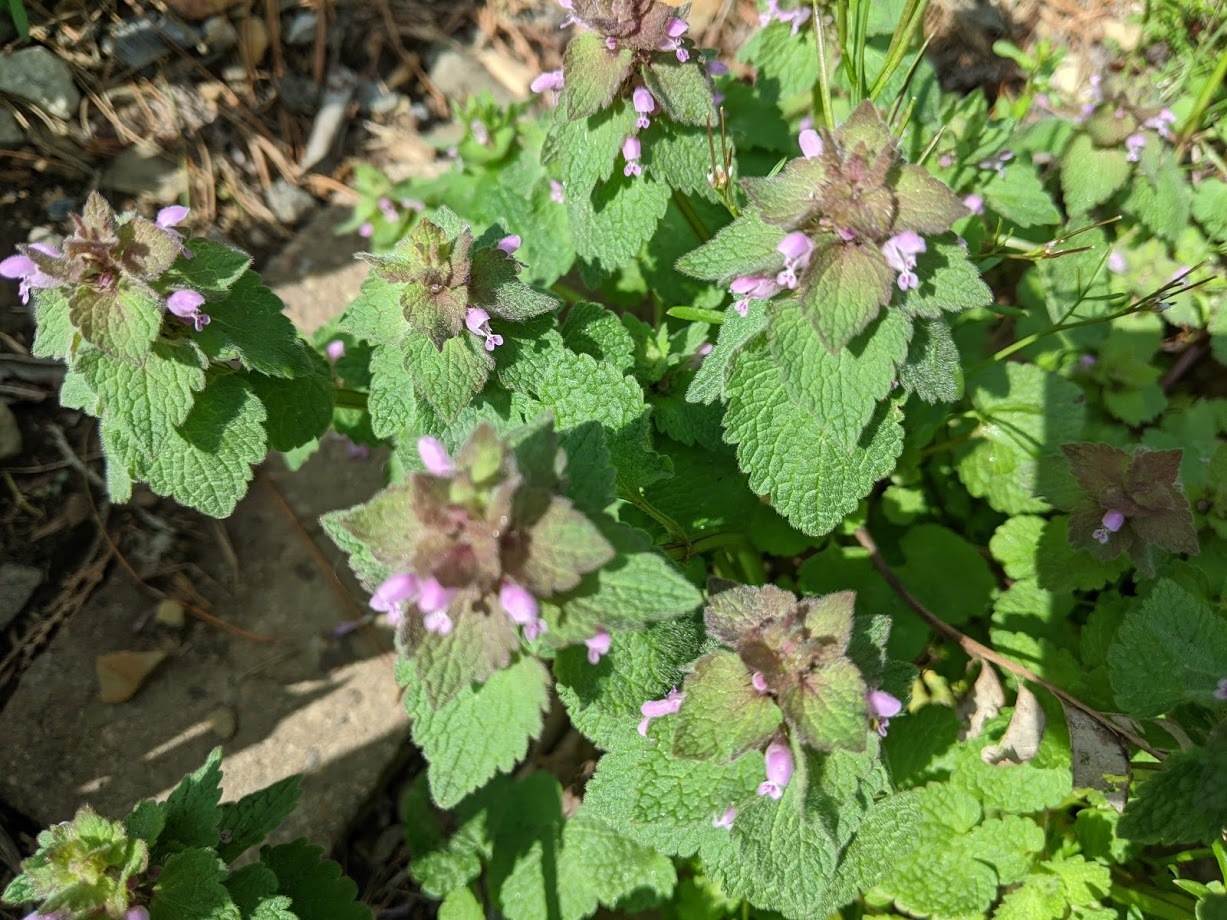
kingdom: Plantae
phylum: Tracheophyta
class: Magnoliopsida
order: Lamiales
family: Lamiaceae
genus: Lamium
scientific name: Lamium purpureum
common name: Red dead-nettle
